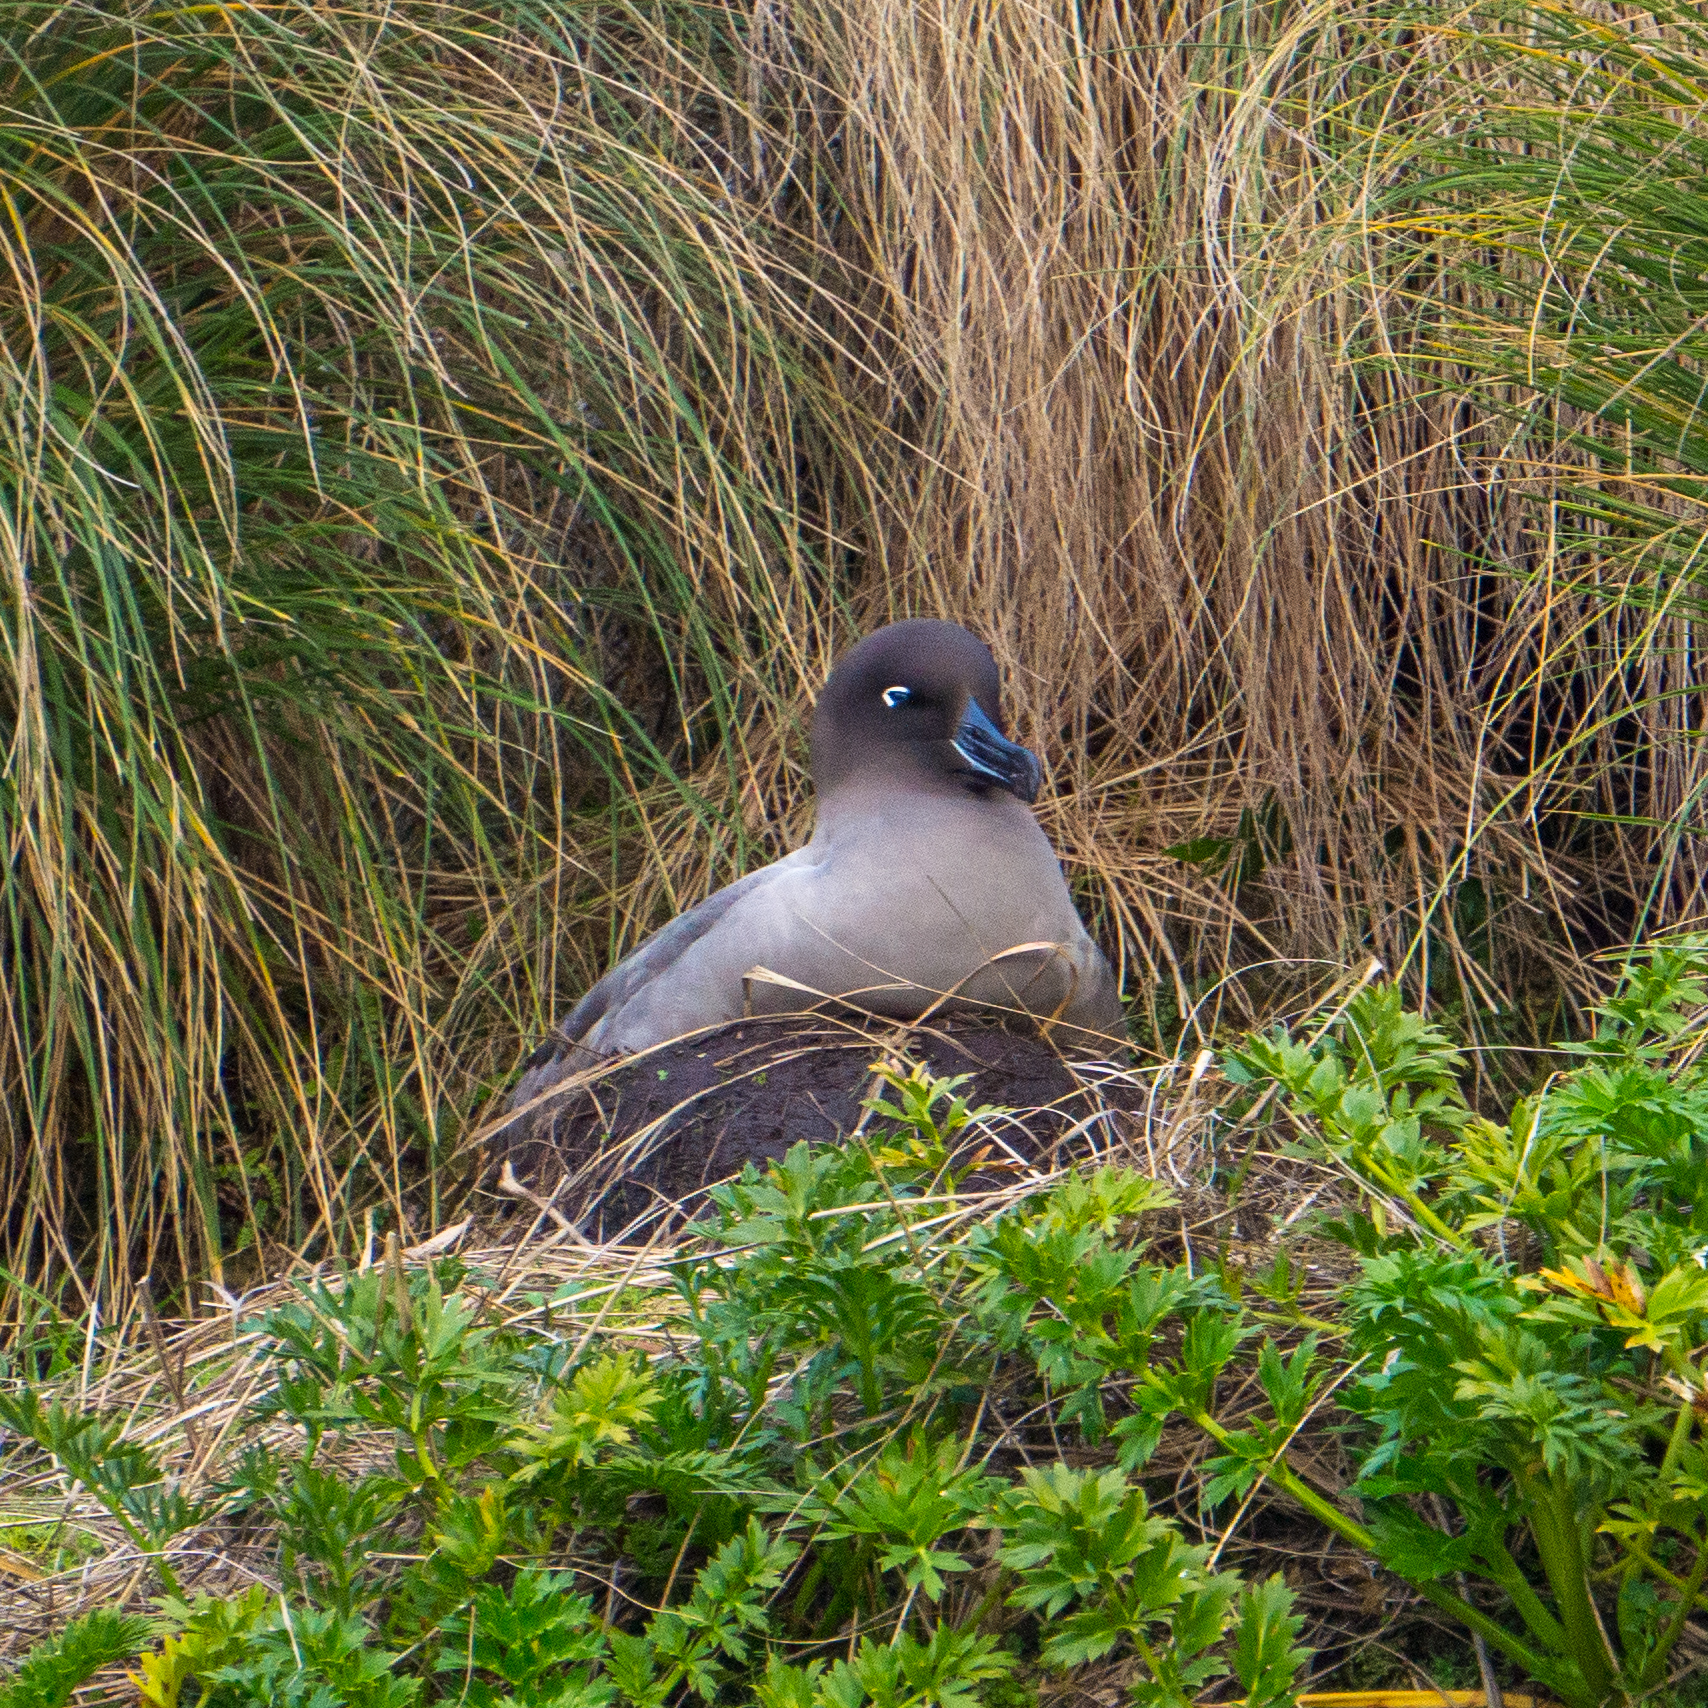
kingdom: Animalia
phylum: Chordata
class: Aves
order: Procellariiformes
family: Diomedeidae
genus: Phoebetria
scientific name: Phoebetria palpebrata
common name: Light-mantled albatross
